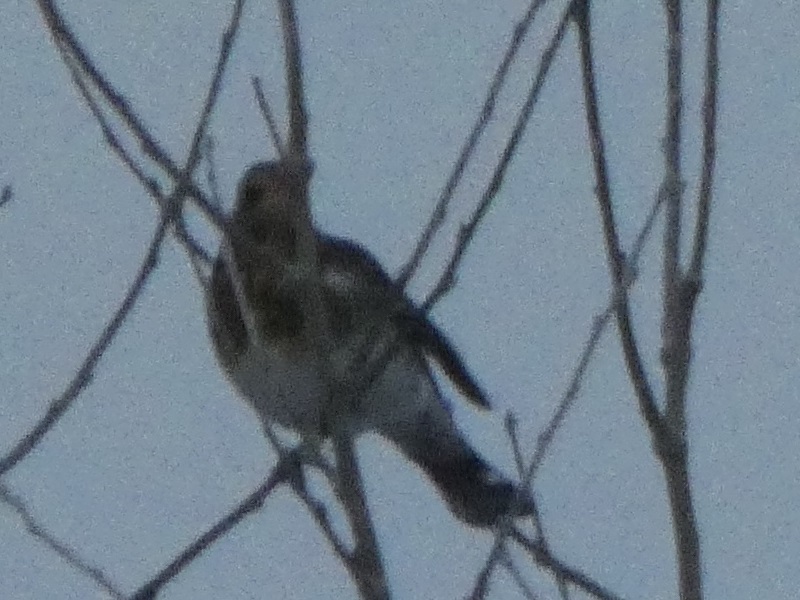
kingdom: Animalia
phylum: Chordata
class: Aves
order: Passeriformes
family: Turdidae
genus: Turdus
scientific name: Turdus pilaris
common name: Fieldfare
